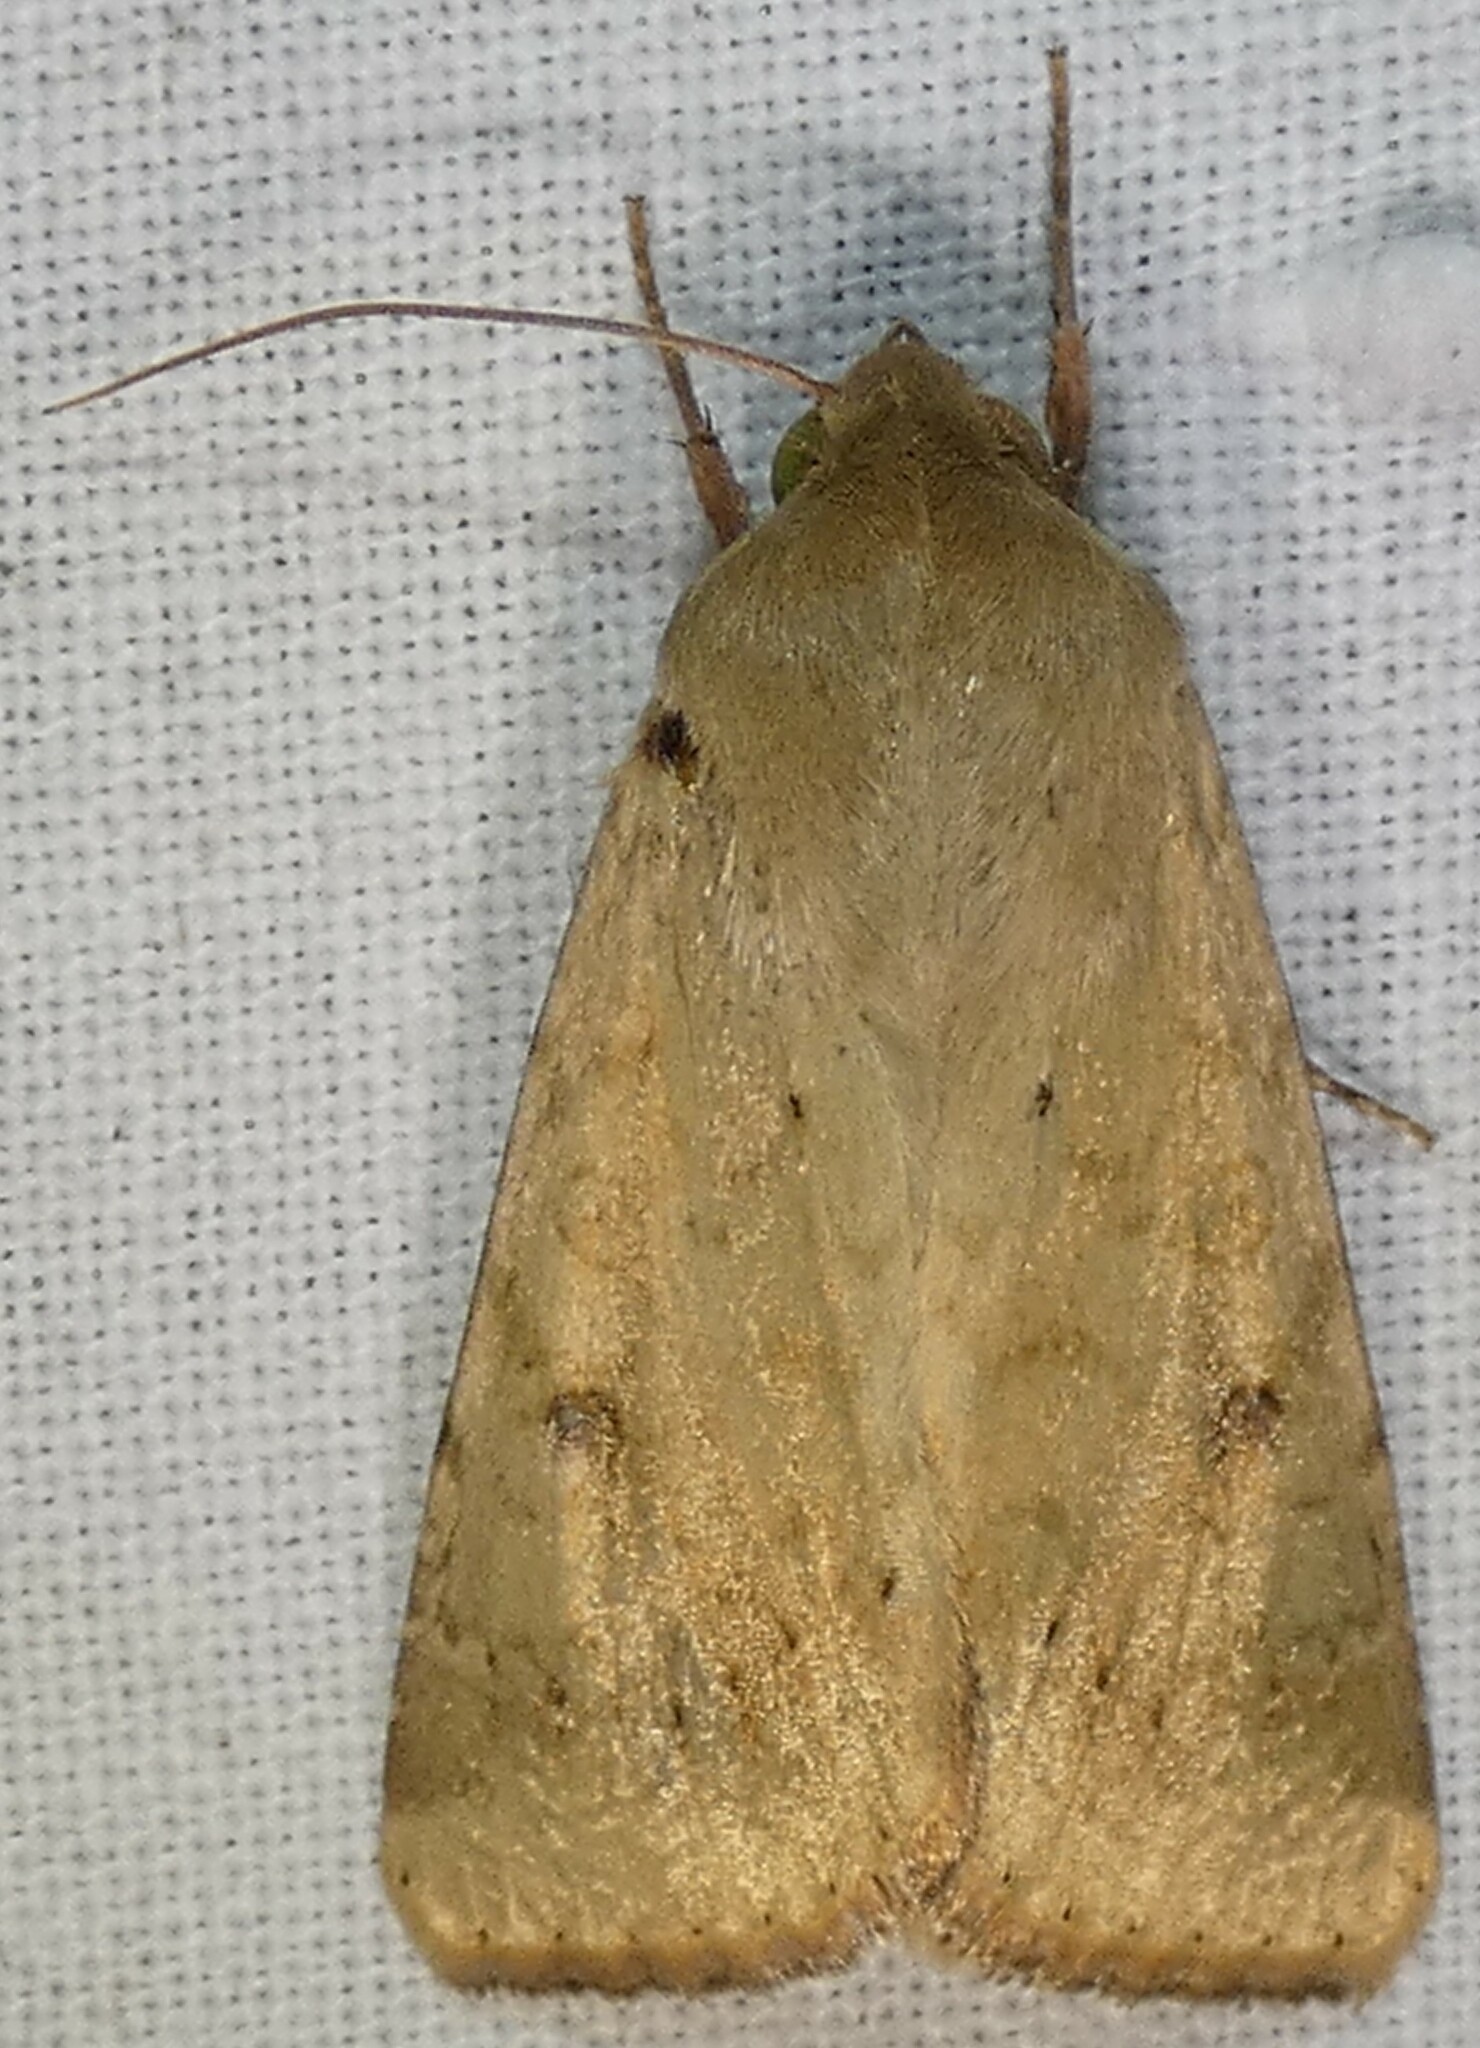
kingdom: Animalia
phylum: Arthropoda
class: Insecta
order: Lepidoptera
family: Noctuidae
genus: Helicoverpa
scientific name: Helicoverpa zea
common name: Bollworm
